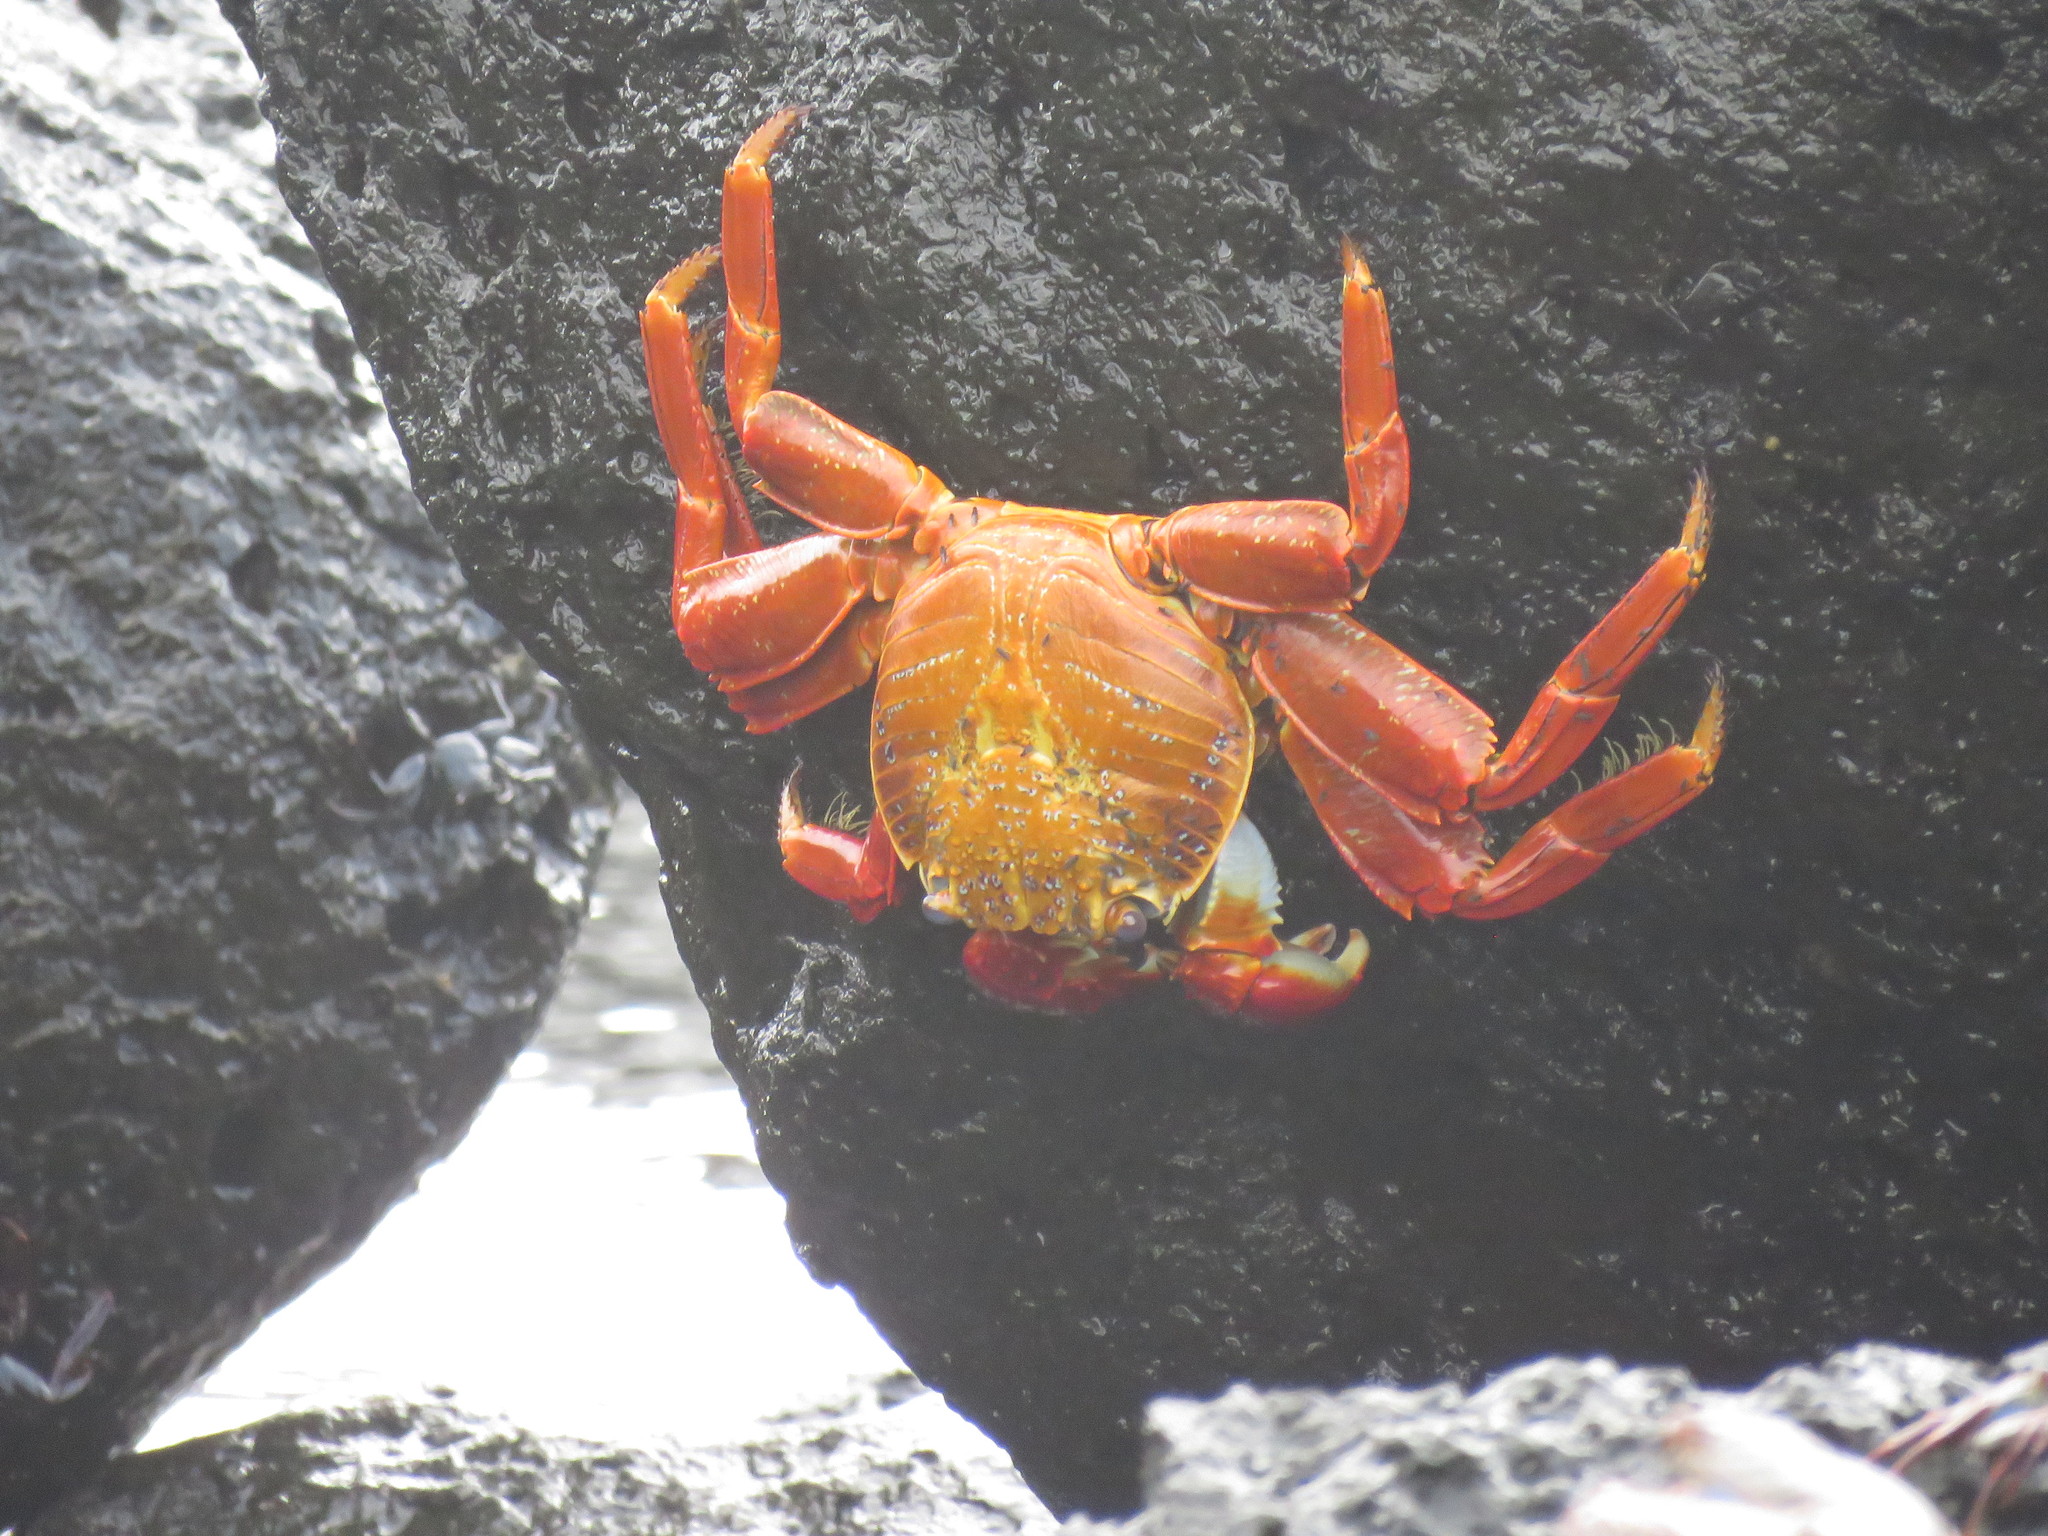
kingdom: Animalia
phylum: Arthropoda
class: Malacostraca
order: Decapoda
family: Grapsidae
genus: Grapsus
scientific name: Grapsus grapsus
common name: Sally lightfoot
